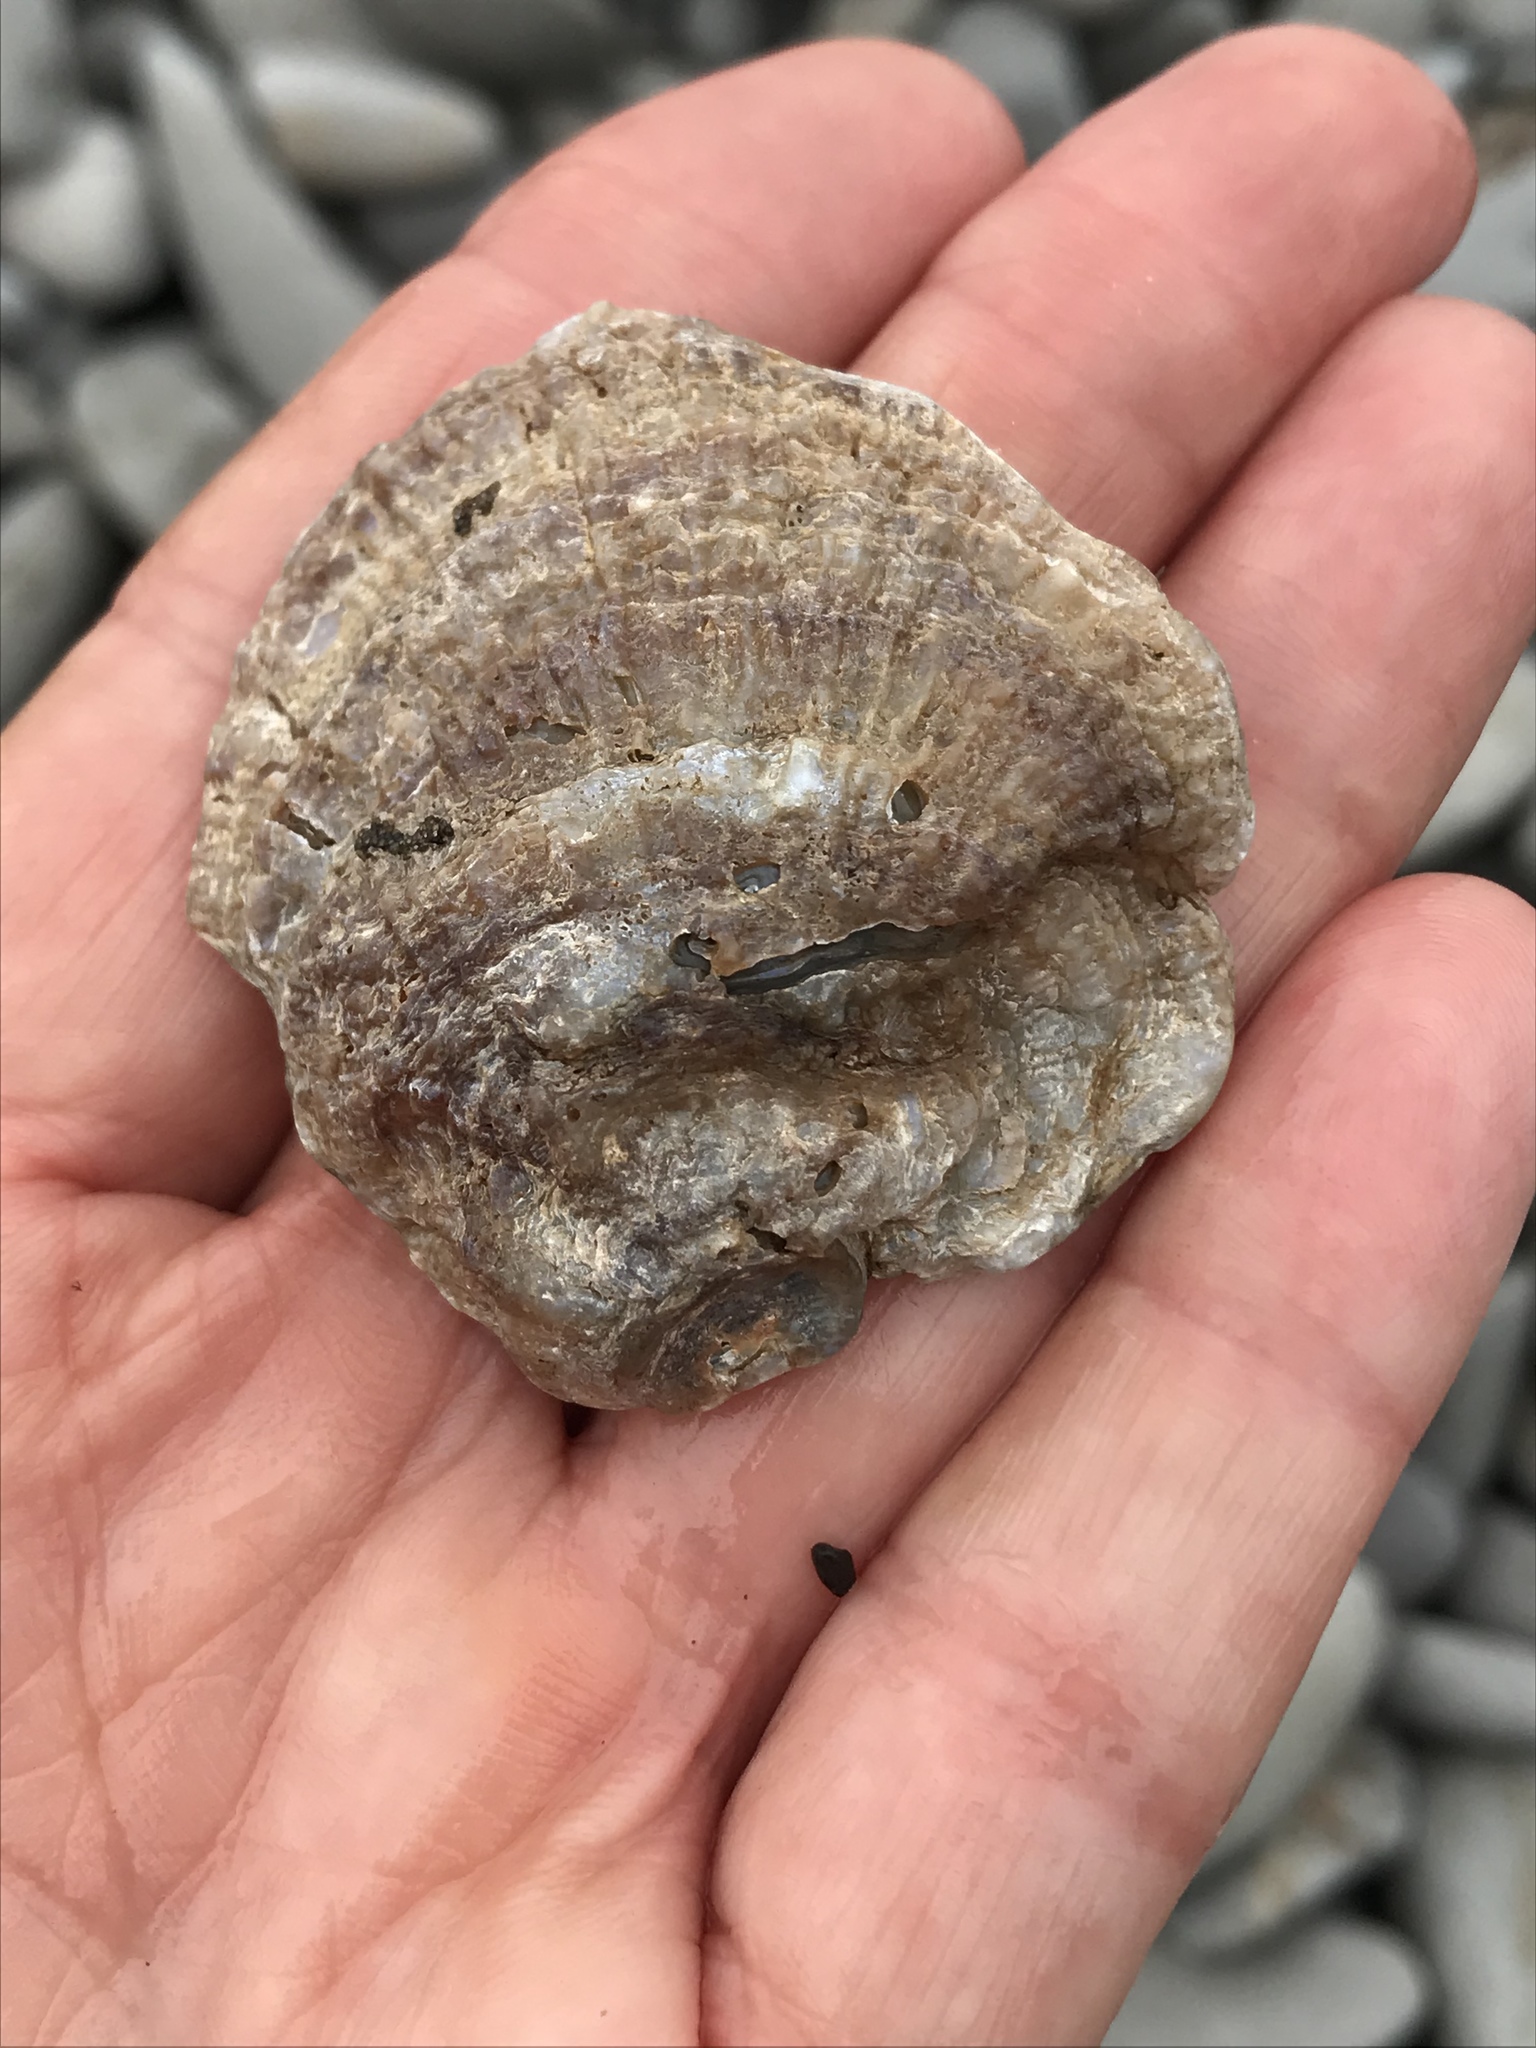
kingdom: Animalia
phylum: Mollusca
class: Bivalvia
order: Pectinida
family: Anomiidae
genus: Pododesmus
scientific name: Pododesmus macrochisma
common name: Alaska jingle
